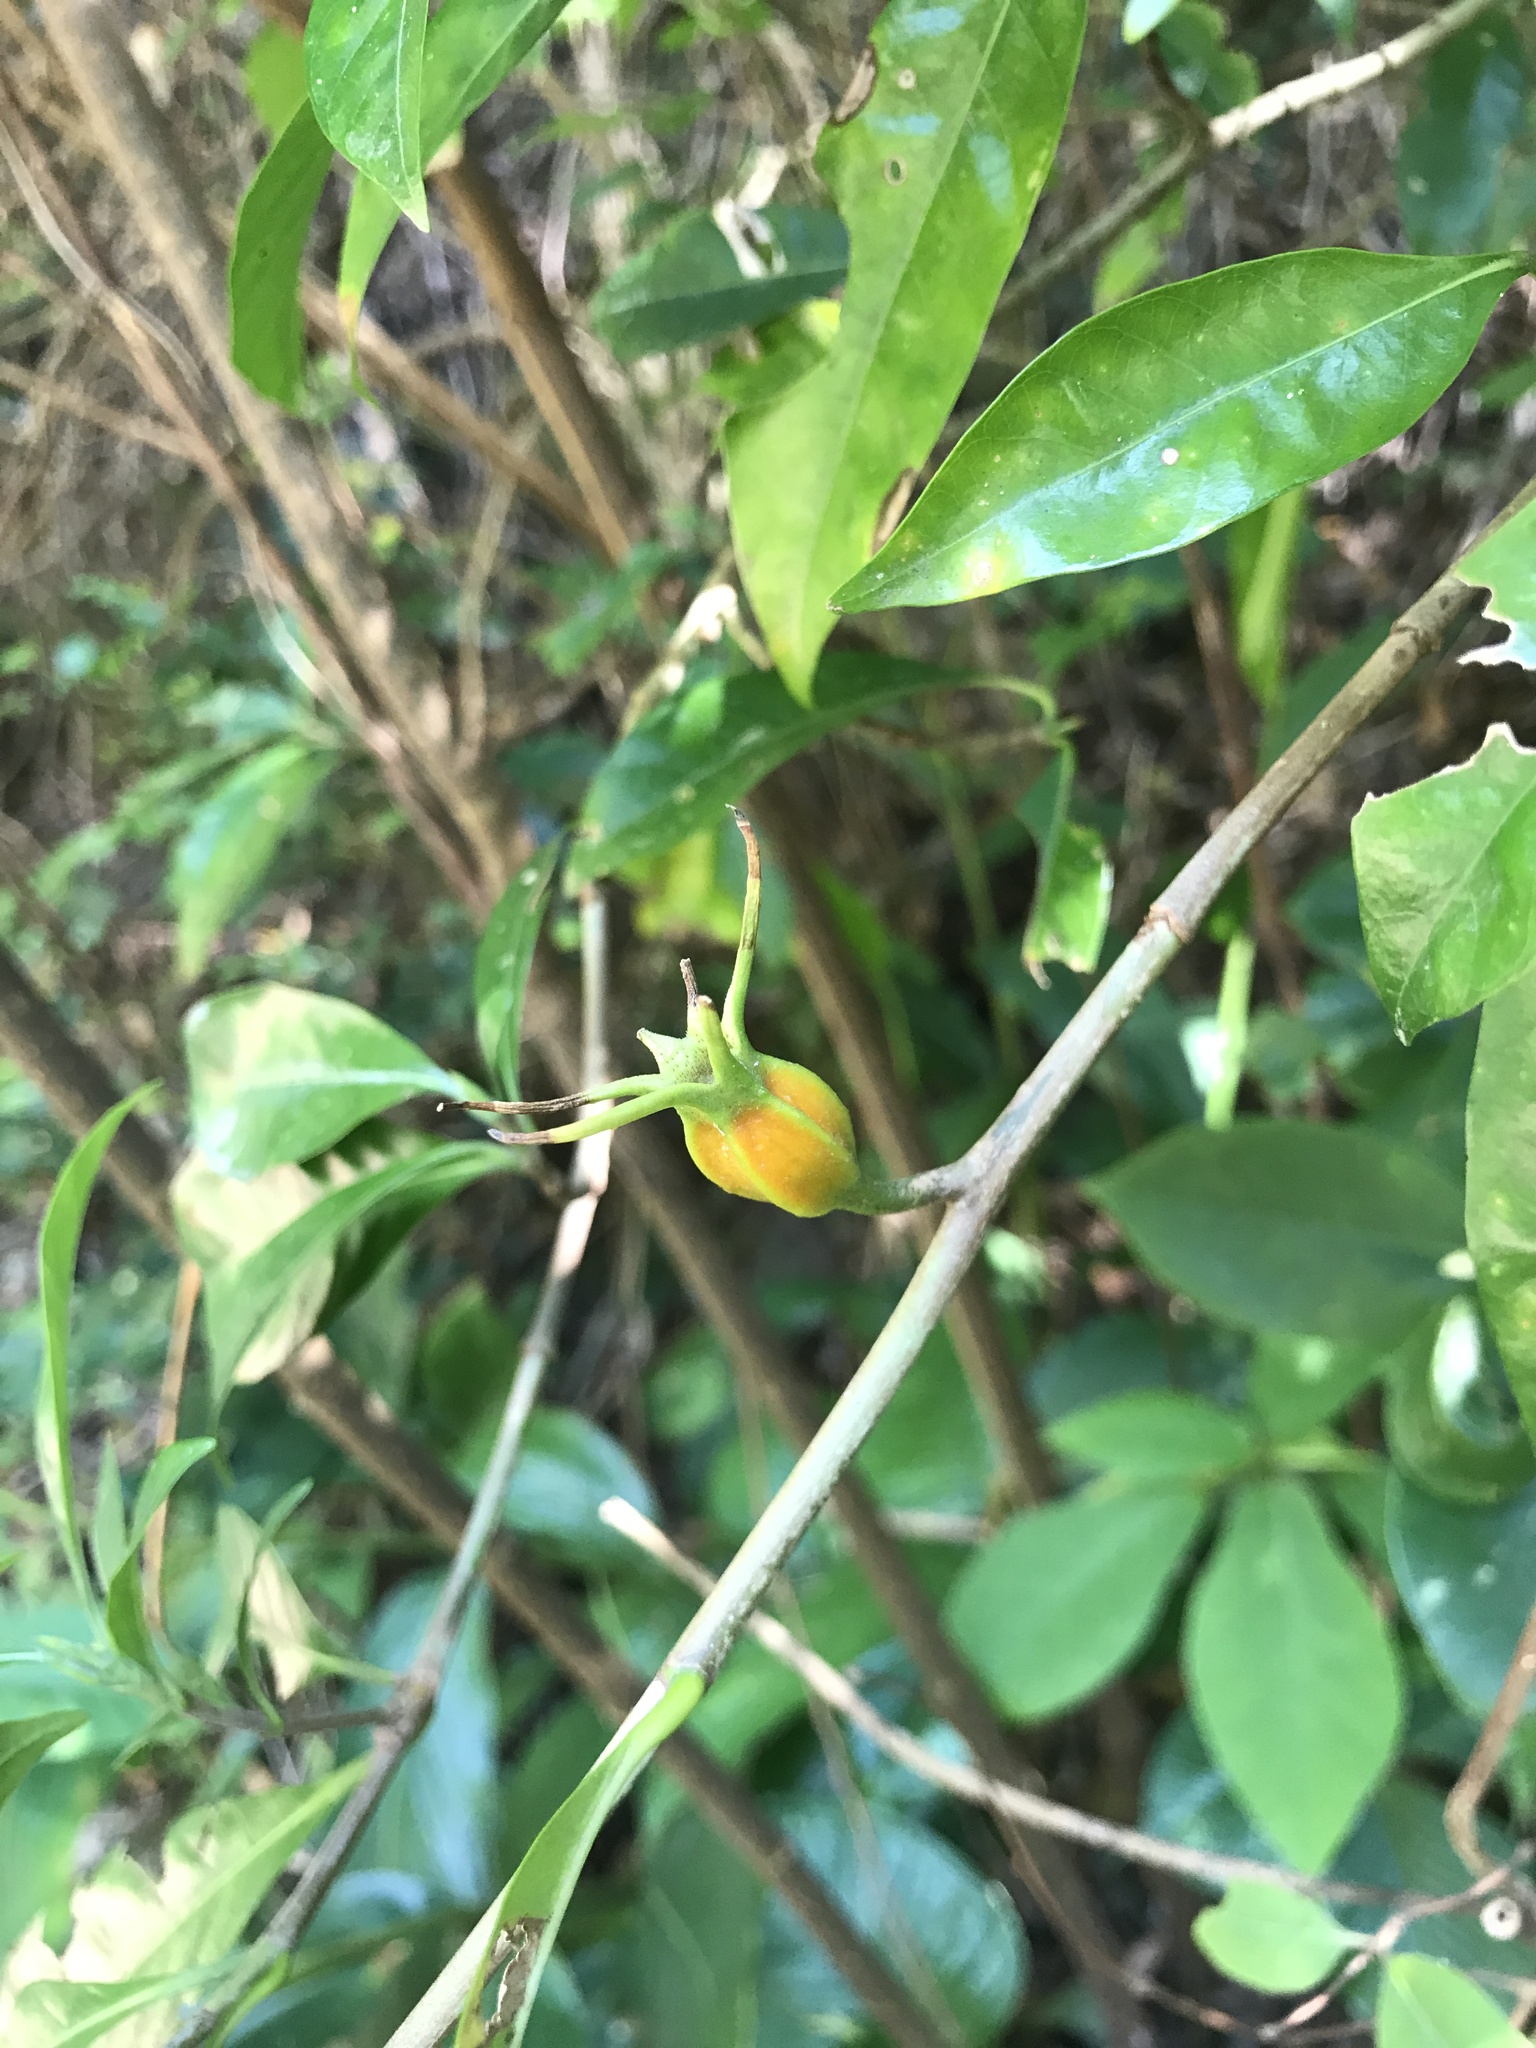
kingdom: Plantae
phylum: Tracheophyta
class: Magnoliopsida
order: Gentianales
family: Rubiaceae
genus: Gardenia
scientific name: Gardenia jasminoides
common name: Cape-jasmine
